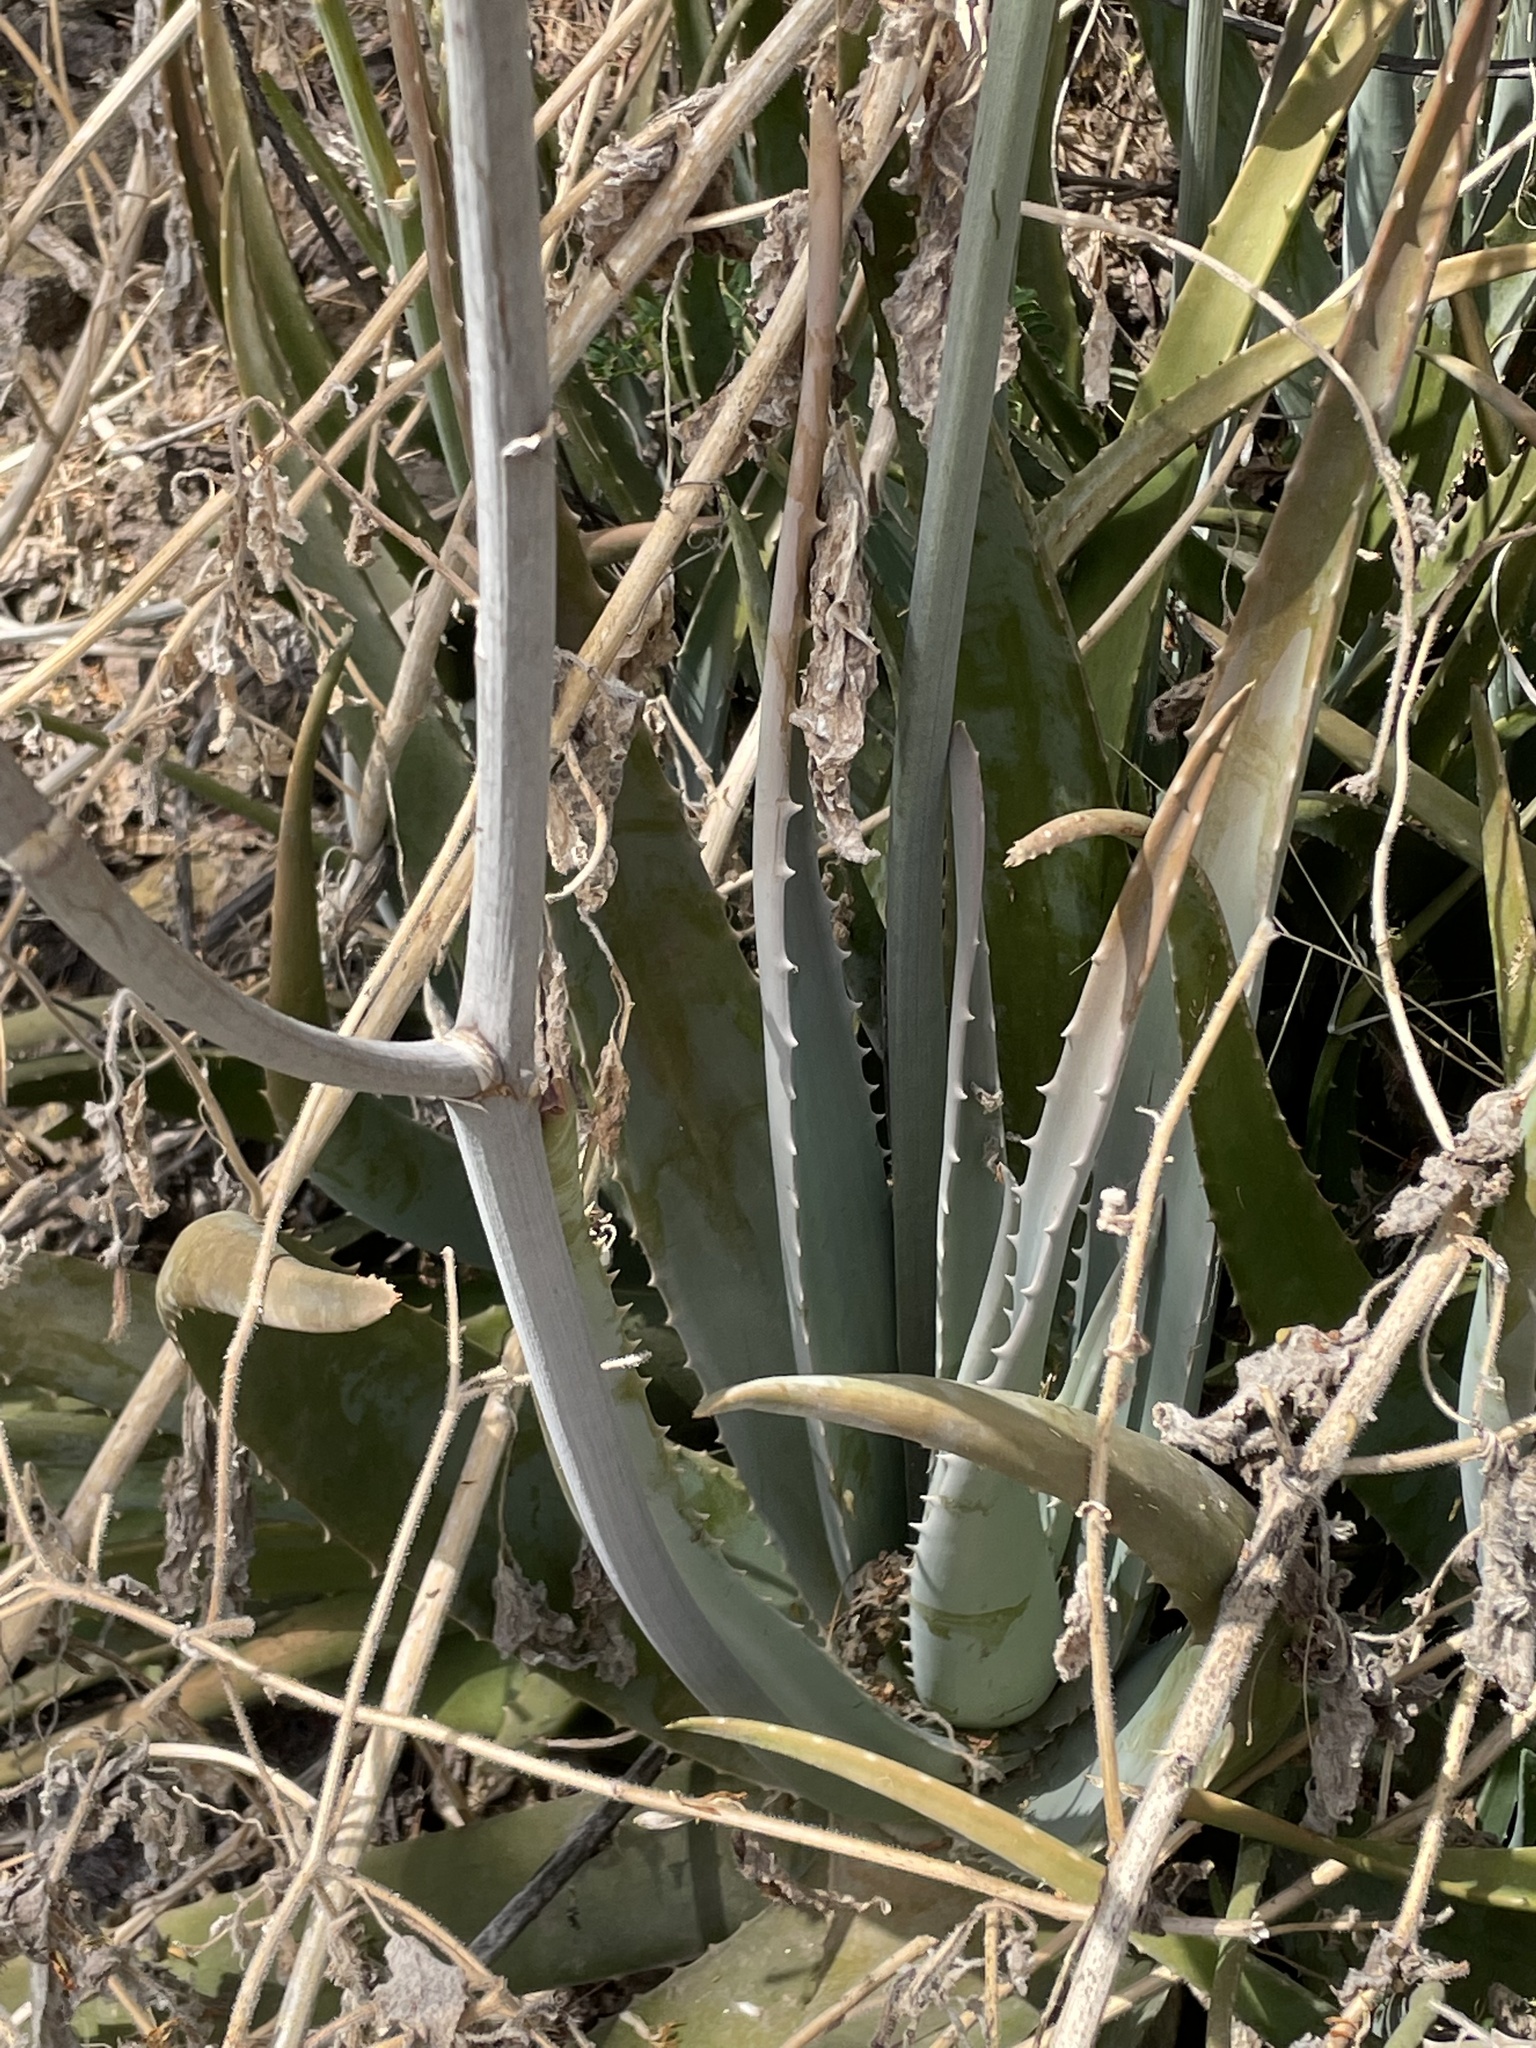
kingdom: Plantae
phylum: Tracheophyta
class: Liliopsida
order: Asparagales
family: Asphodelaceae
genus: Aloe
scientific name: Aloe vera
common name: Barbados aloe
